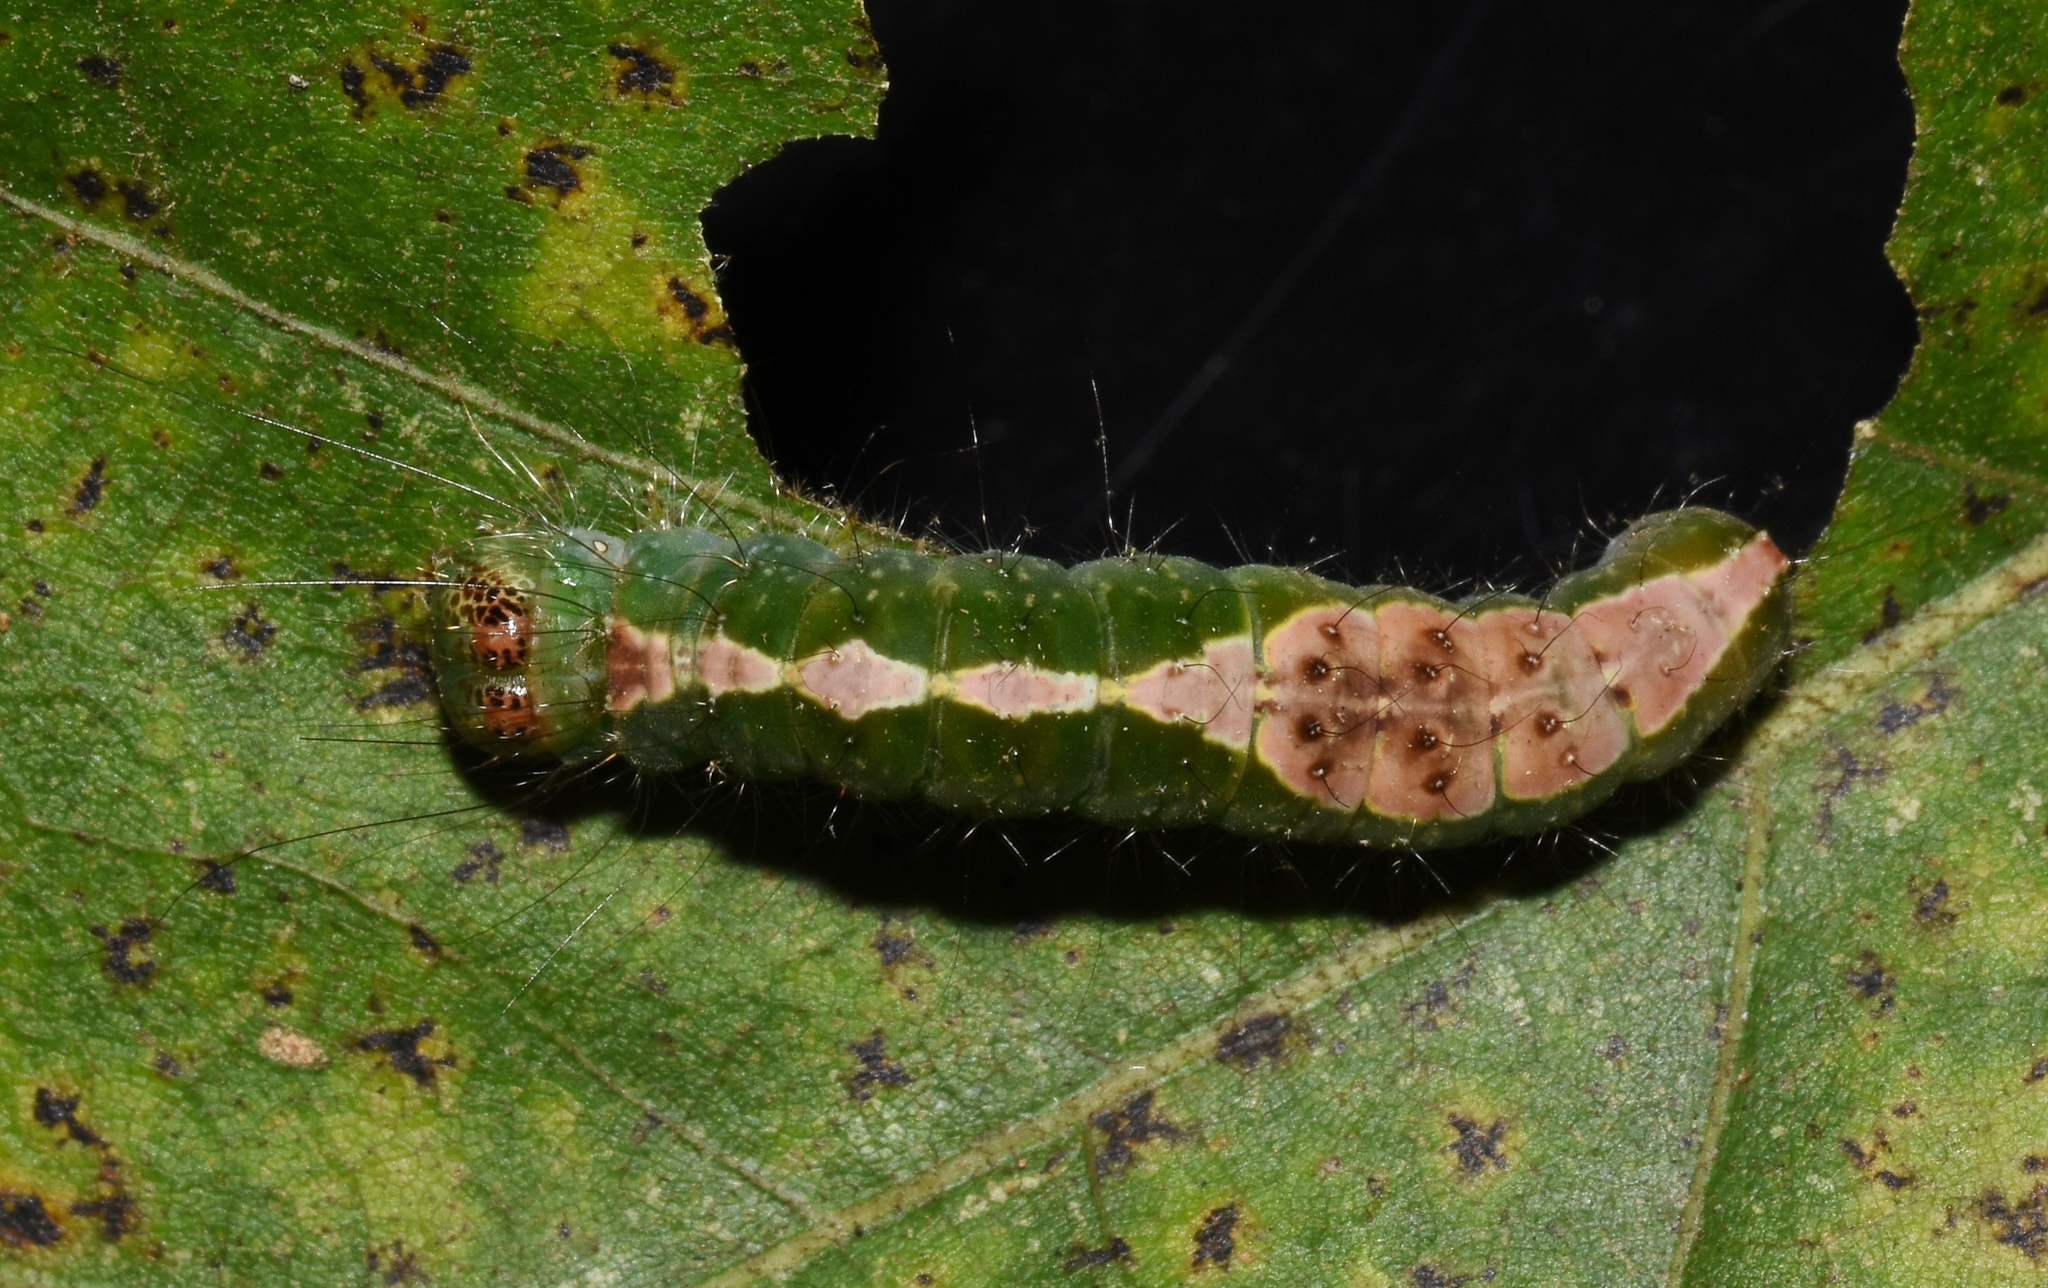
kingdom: Animalia
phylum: Arthropoda
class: Insecta
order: Lepidoptera
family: Noctuidae
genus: Acronicta
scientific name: Acronicta lithospila
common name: Streaked dagger
